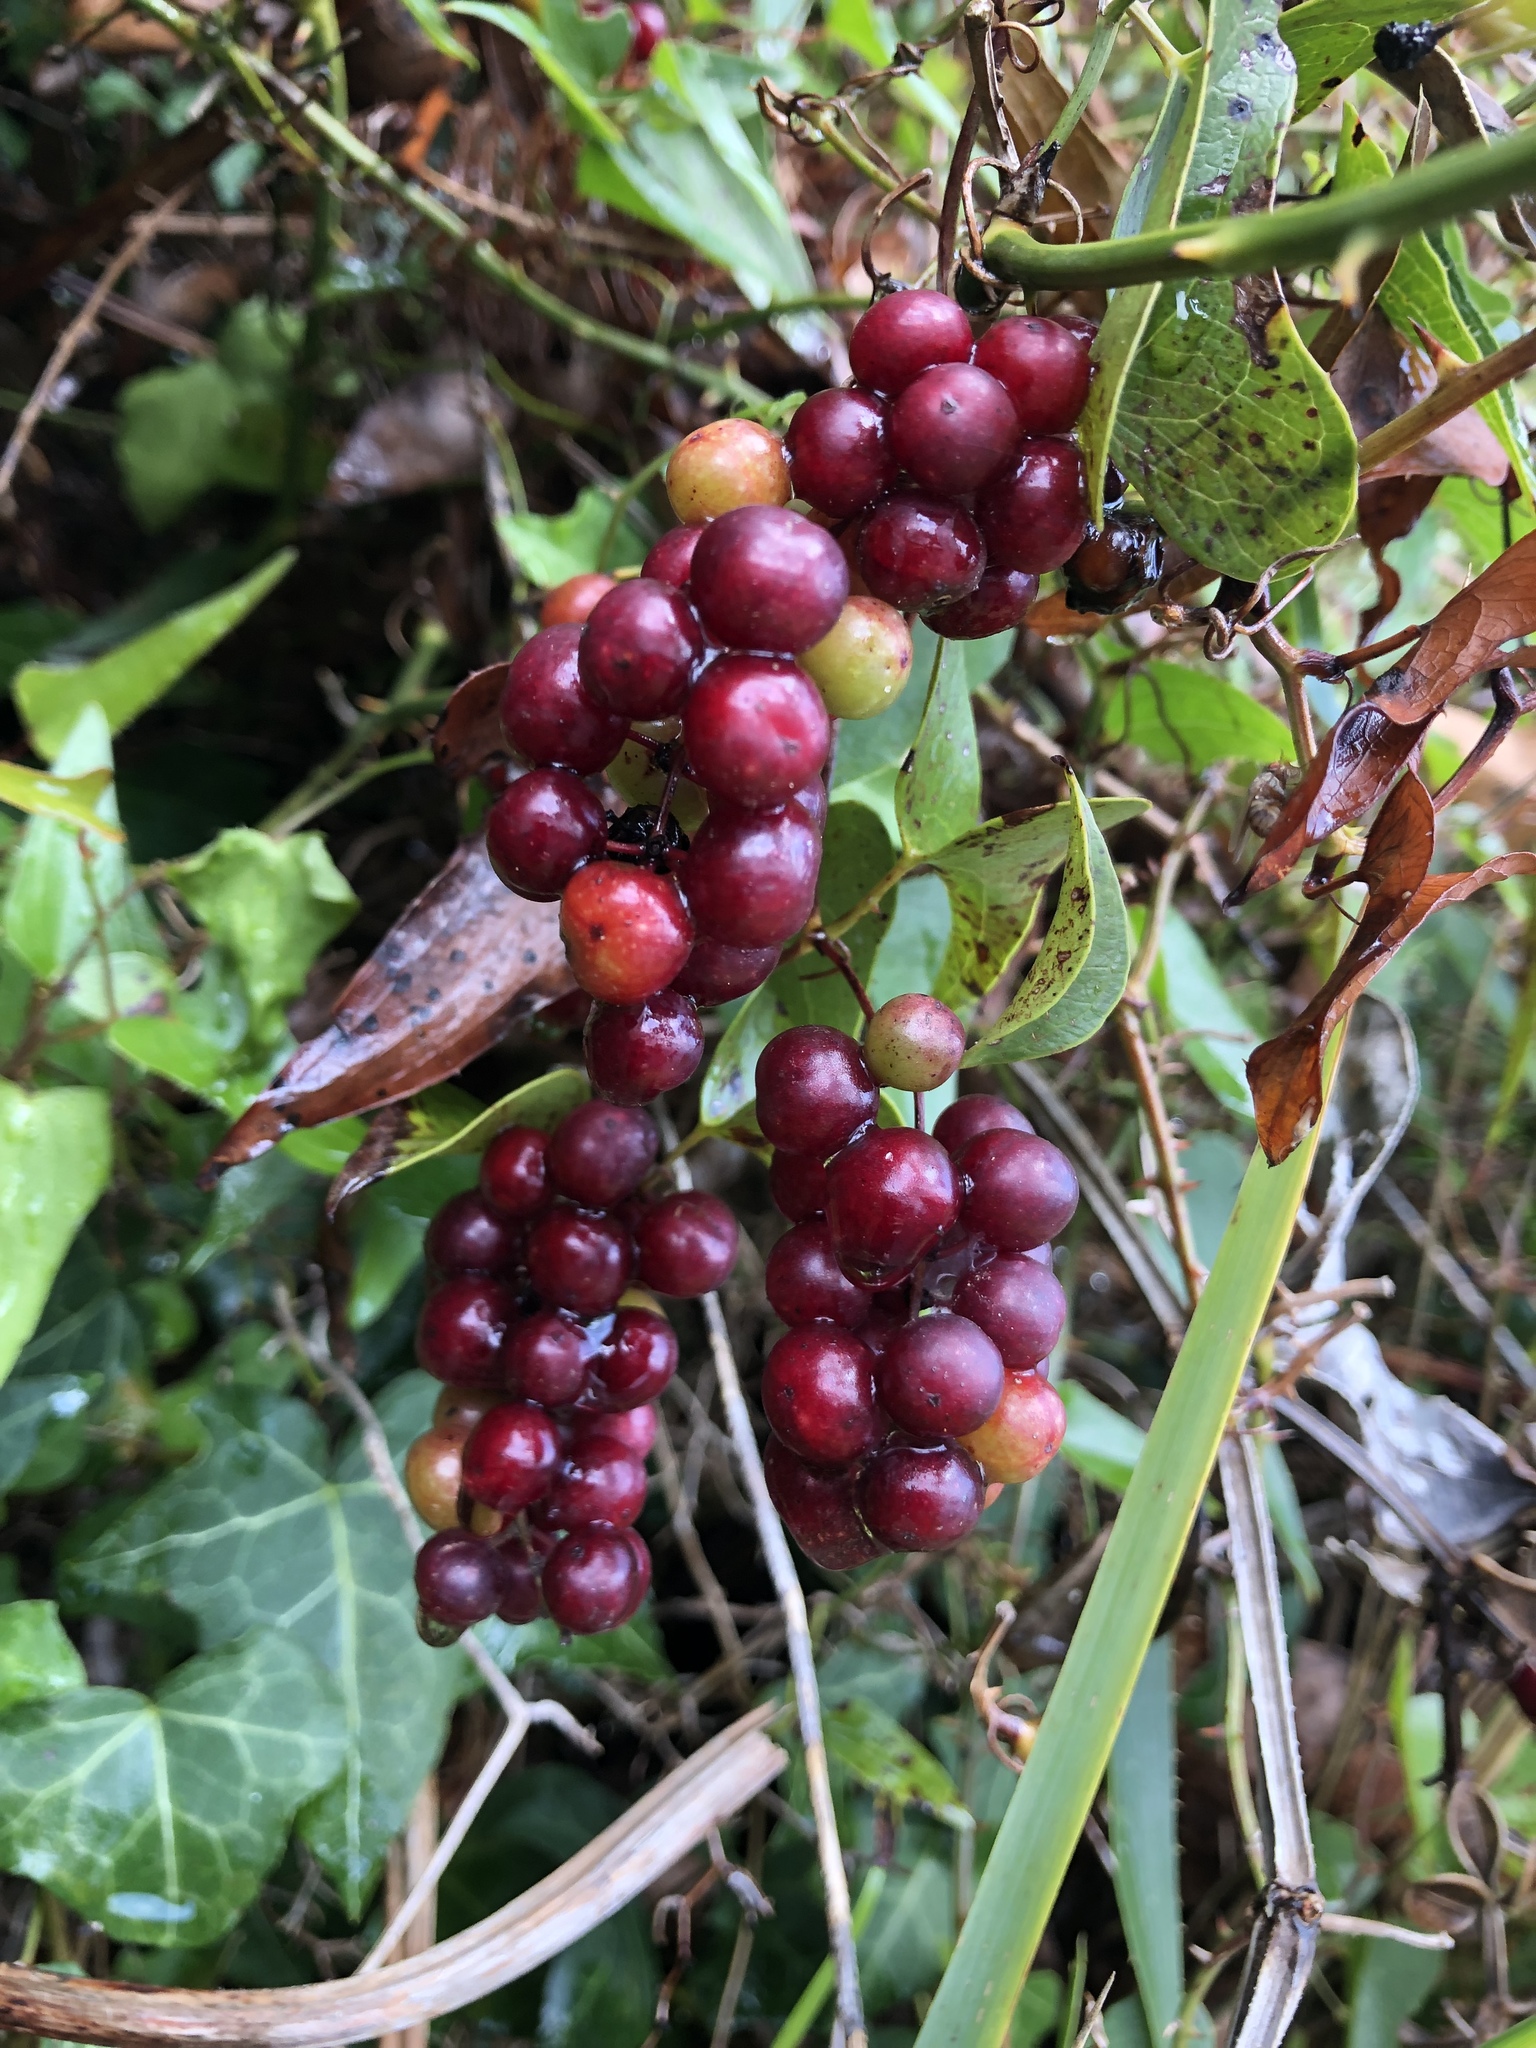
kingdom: Plantae
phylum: Tracheophyta
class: Liliopsida
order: Liliales
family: Smilacaceae
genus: Smilax
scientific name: Smilax aspera
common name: Common smilax
